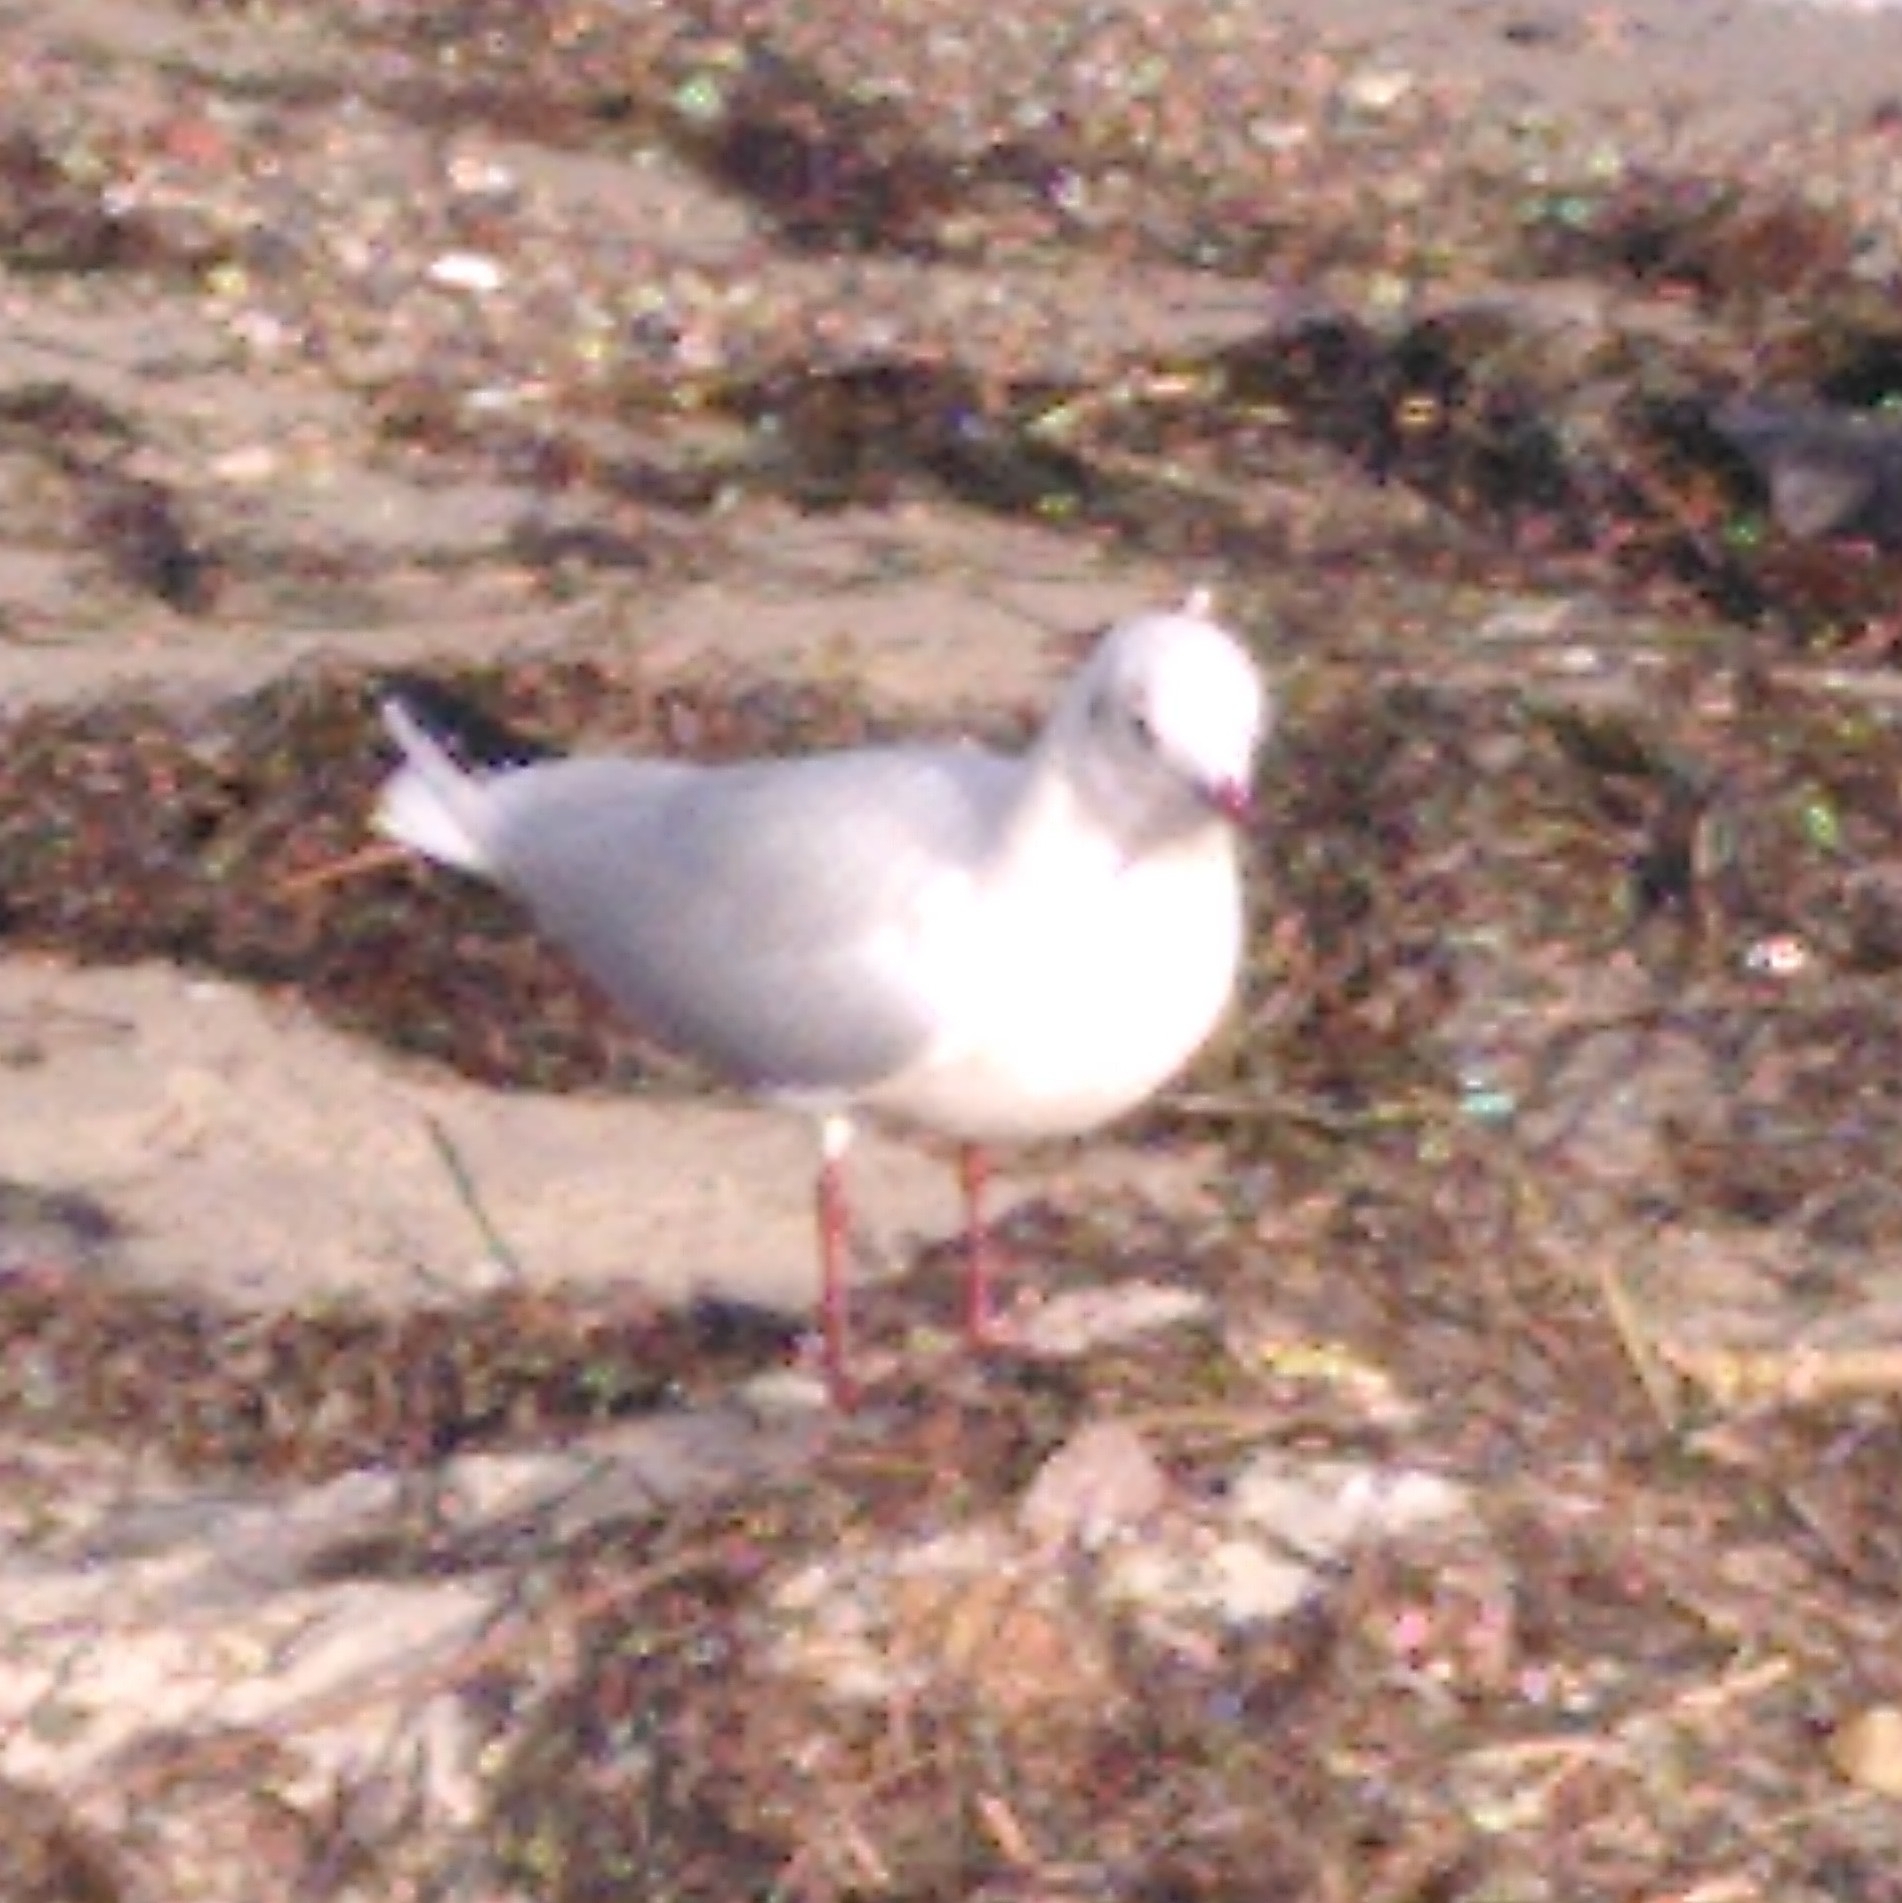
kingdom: Animalia
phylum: Chordata
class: Aves
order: Charadriiformes
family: Laridae
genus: Chroicocephalus
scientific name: Chroicocephalus ridibundus
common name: Black-headed gull
